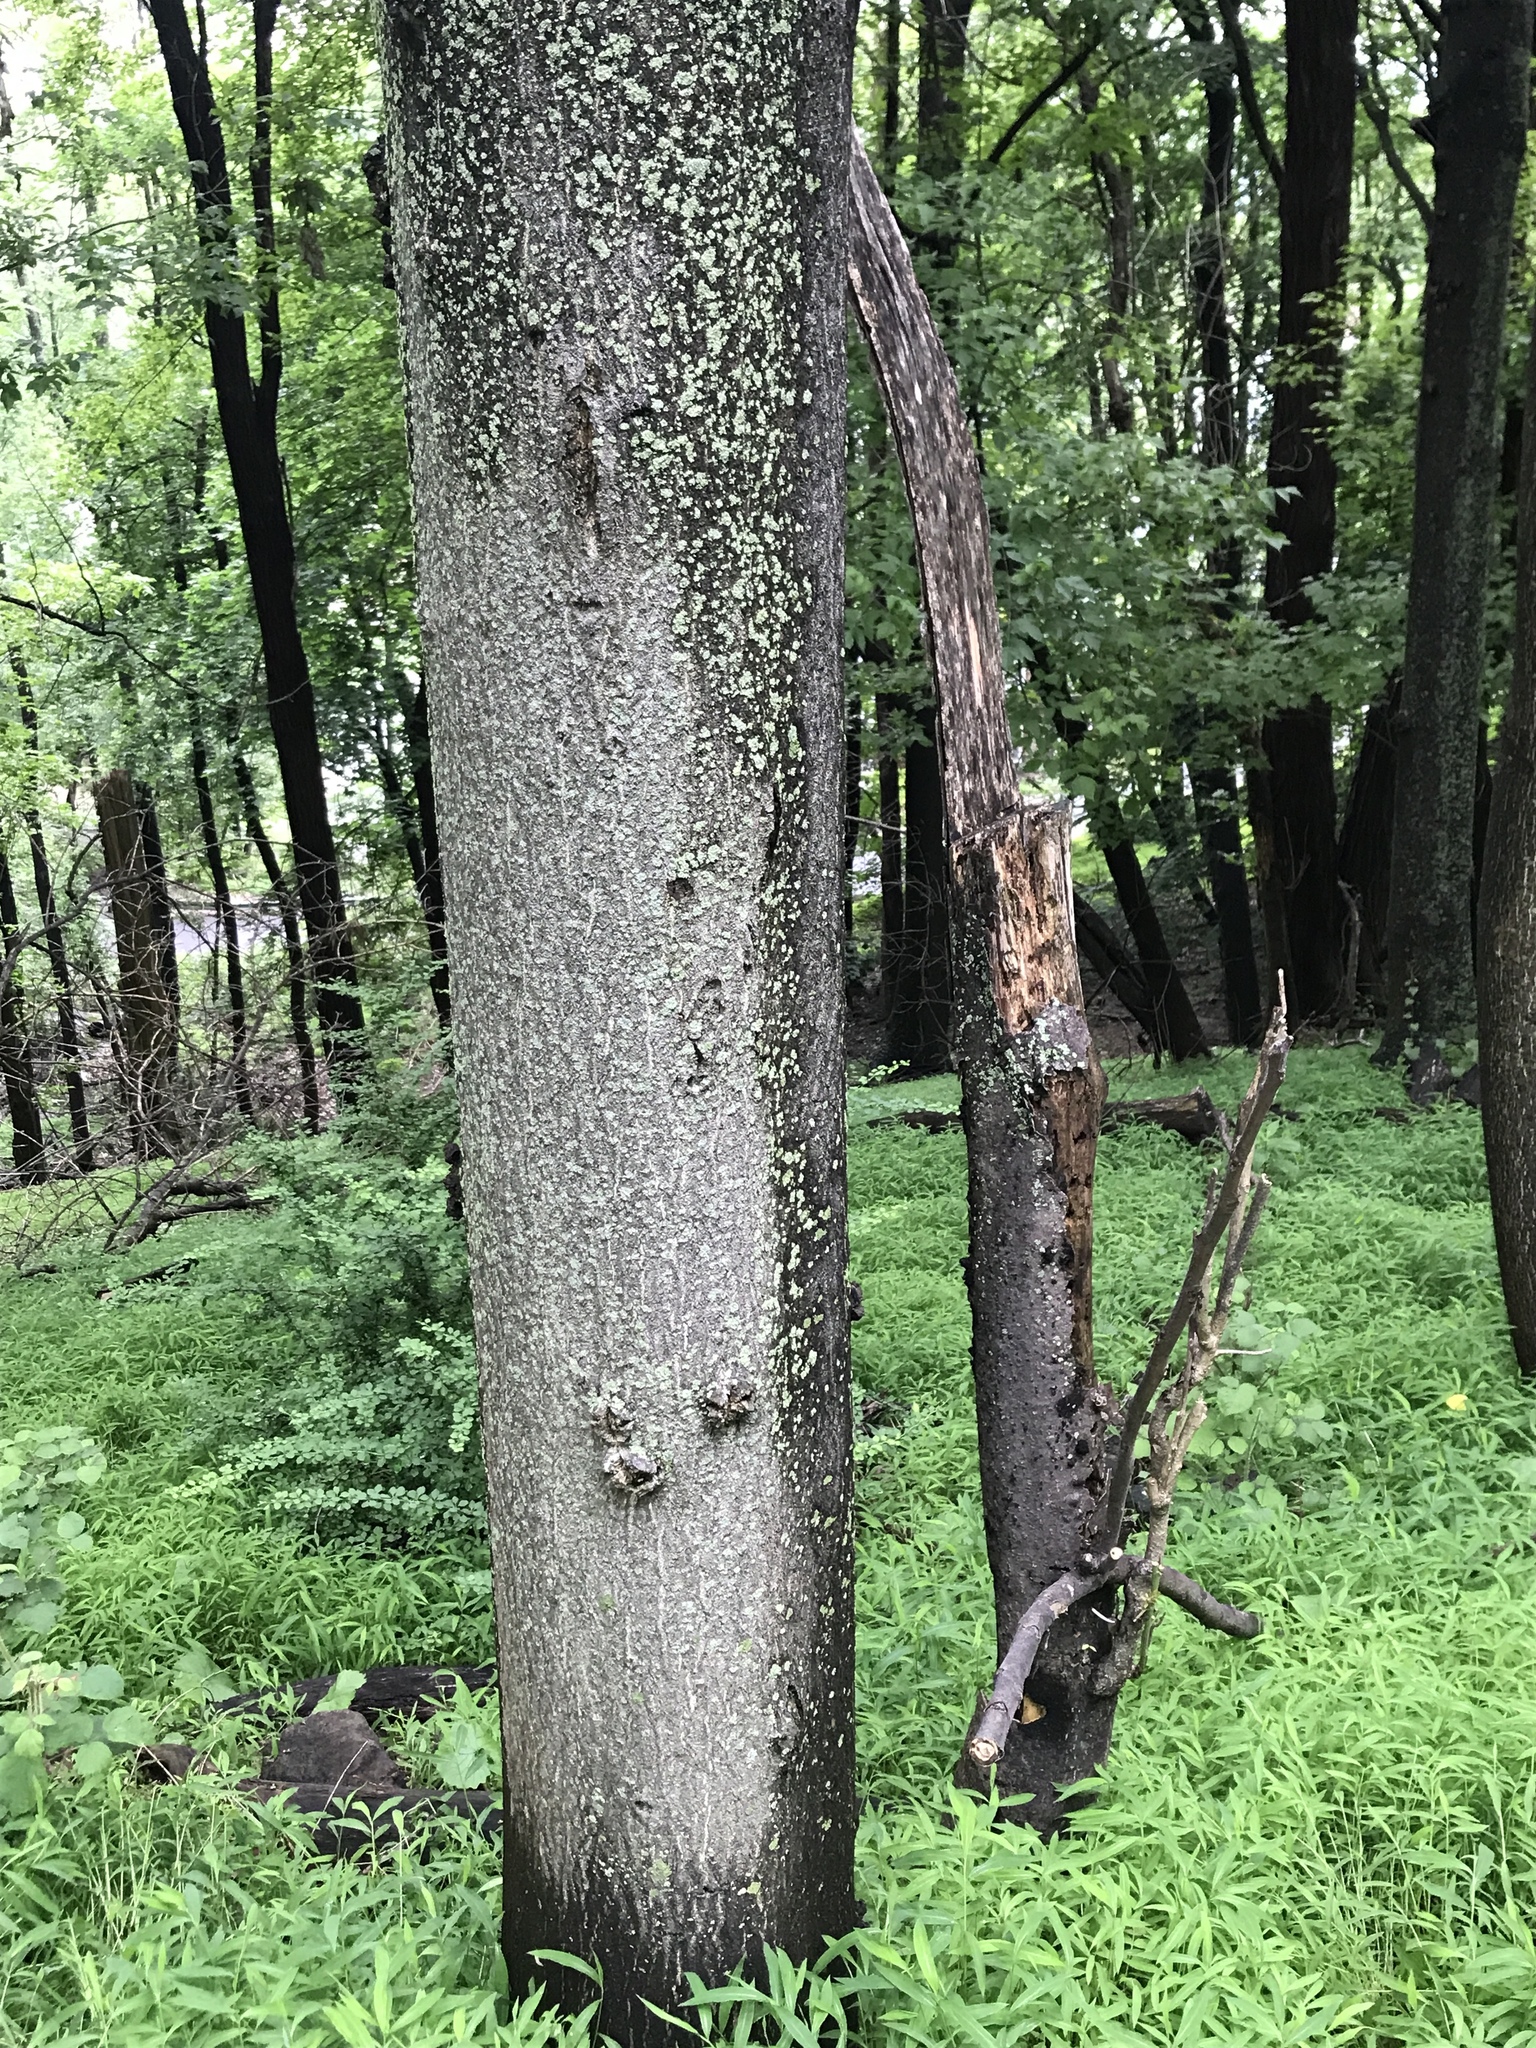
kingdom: Plantae
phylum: Tracheophyta
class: Magnoliopsida
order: Sapindales
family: Simaroubaceae
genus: Ailanthus
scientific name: Ailanthus altissima
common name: Tree-of-heaven
